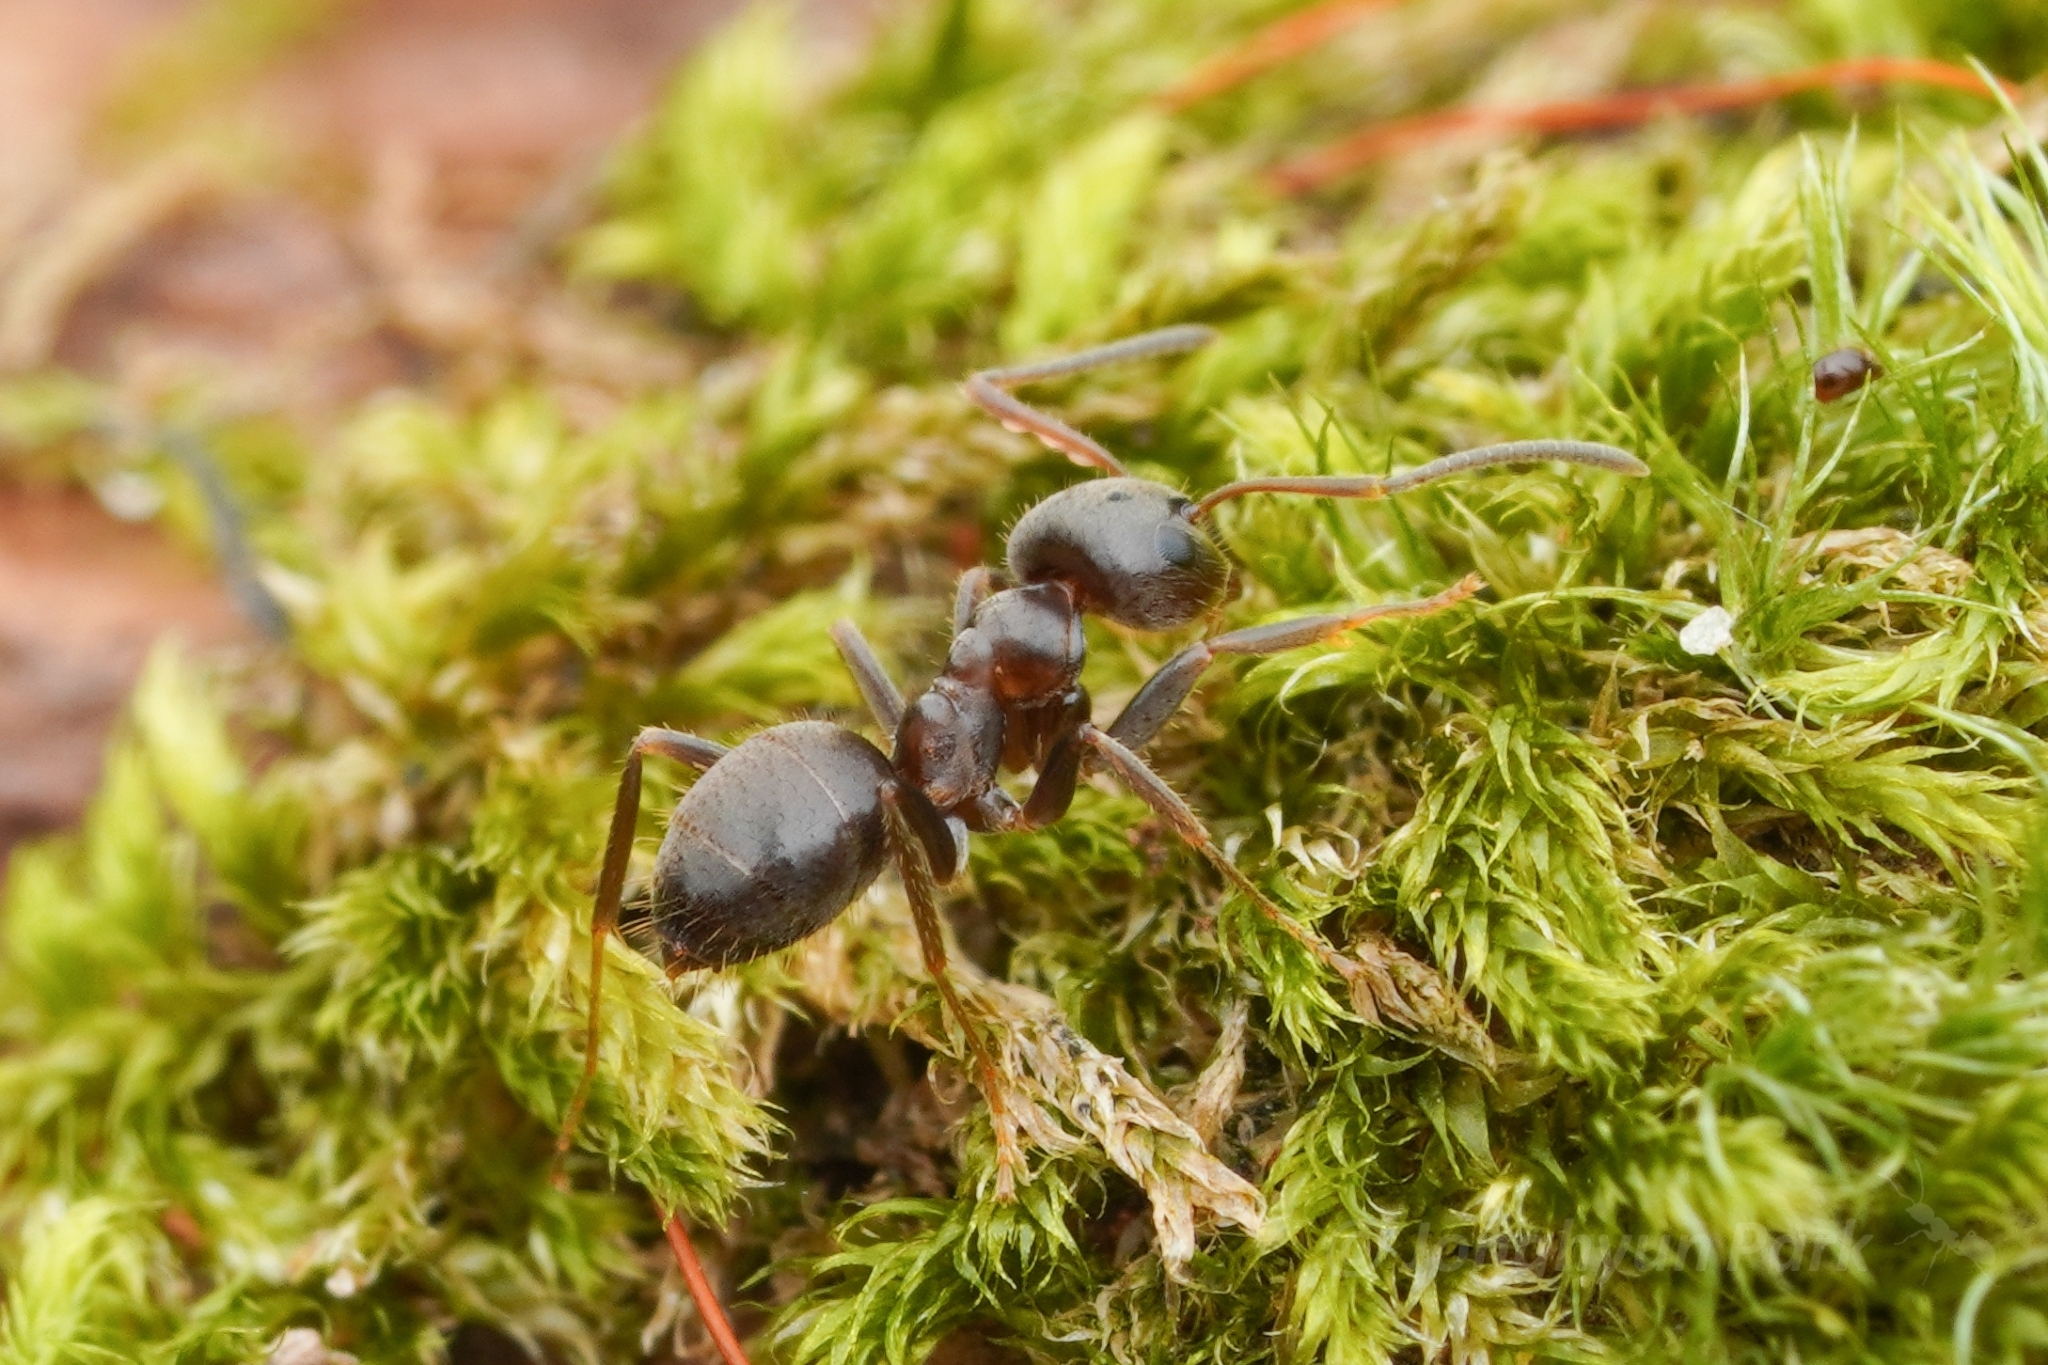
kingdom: Animalia
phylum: Arthropoda
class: Insecta
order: Hymenoptera
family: Formicidae
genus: Lasius
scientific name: Lasius japonicus
